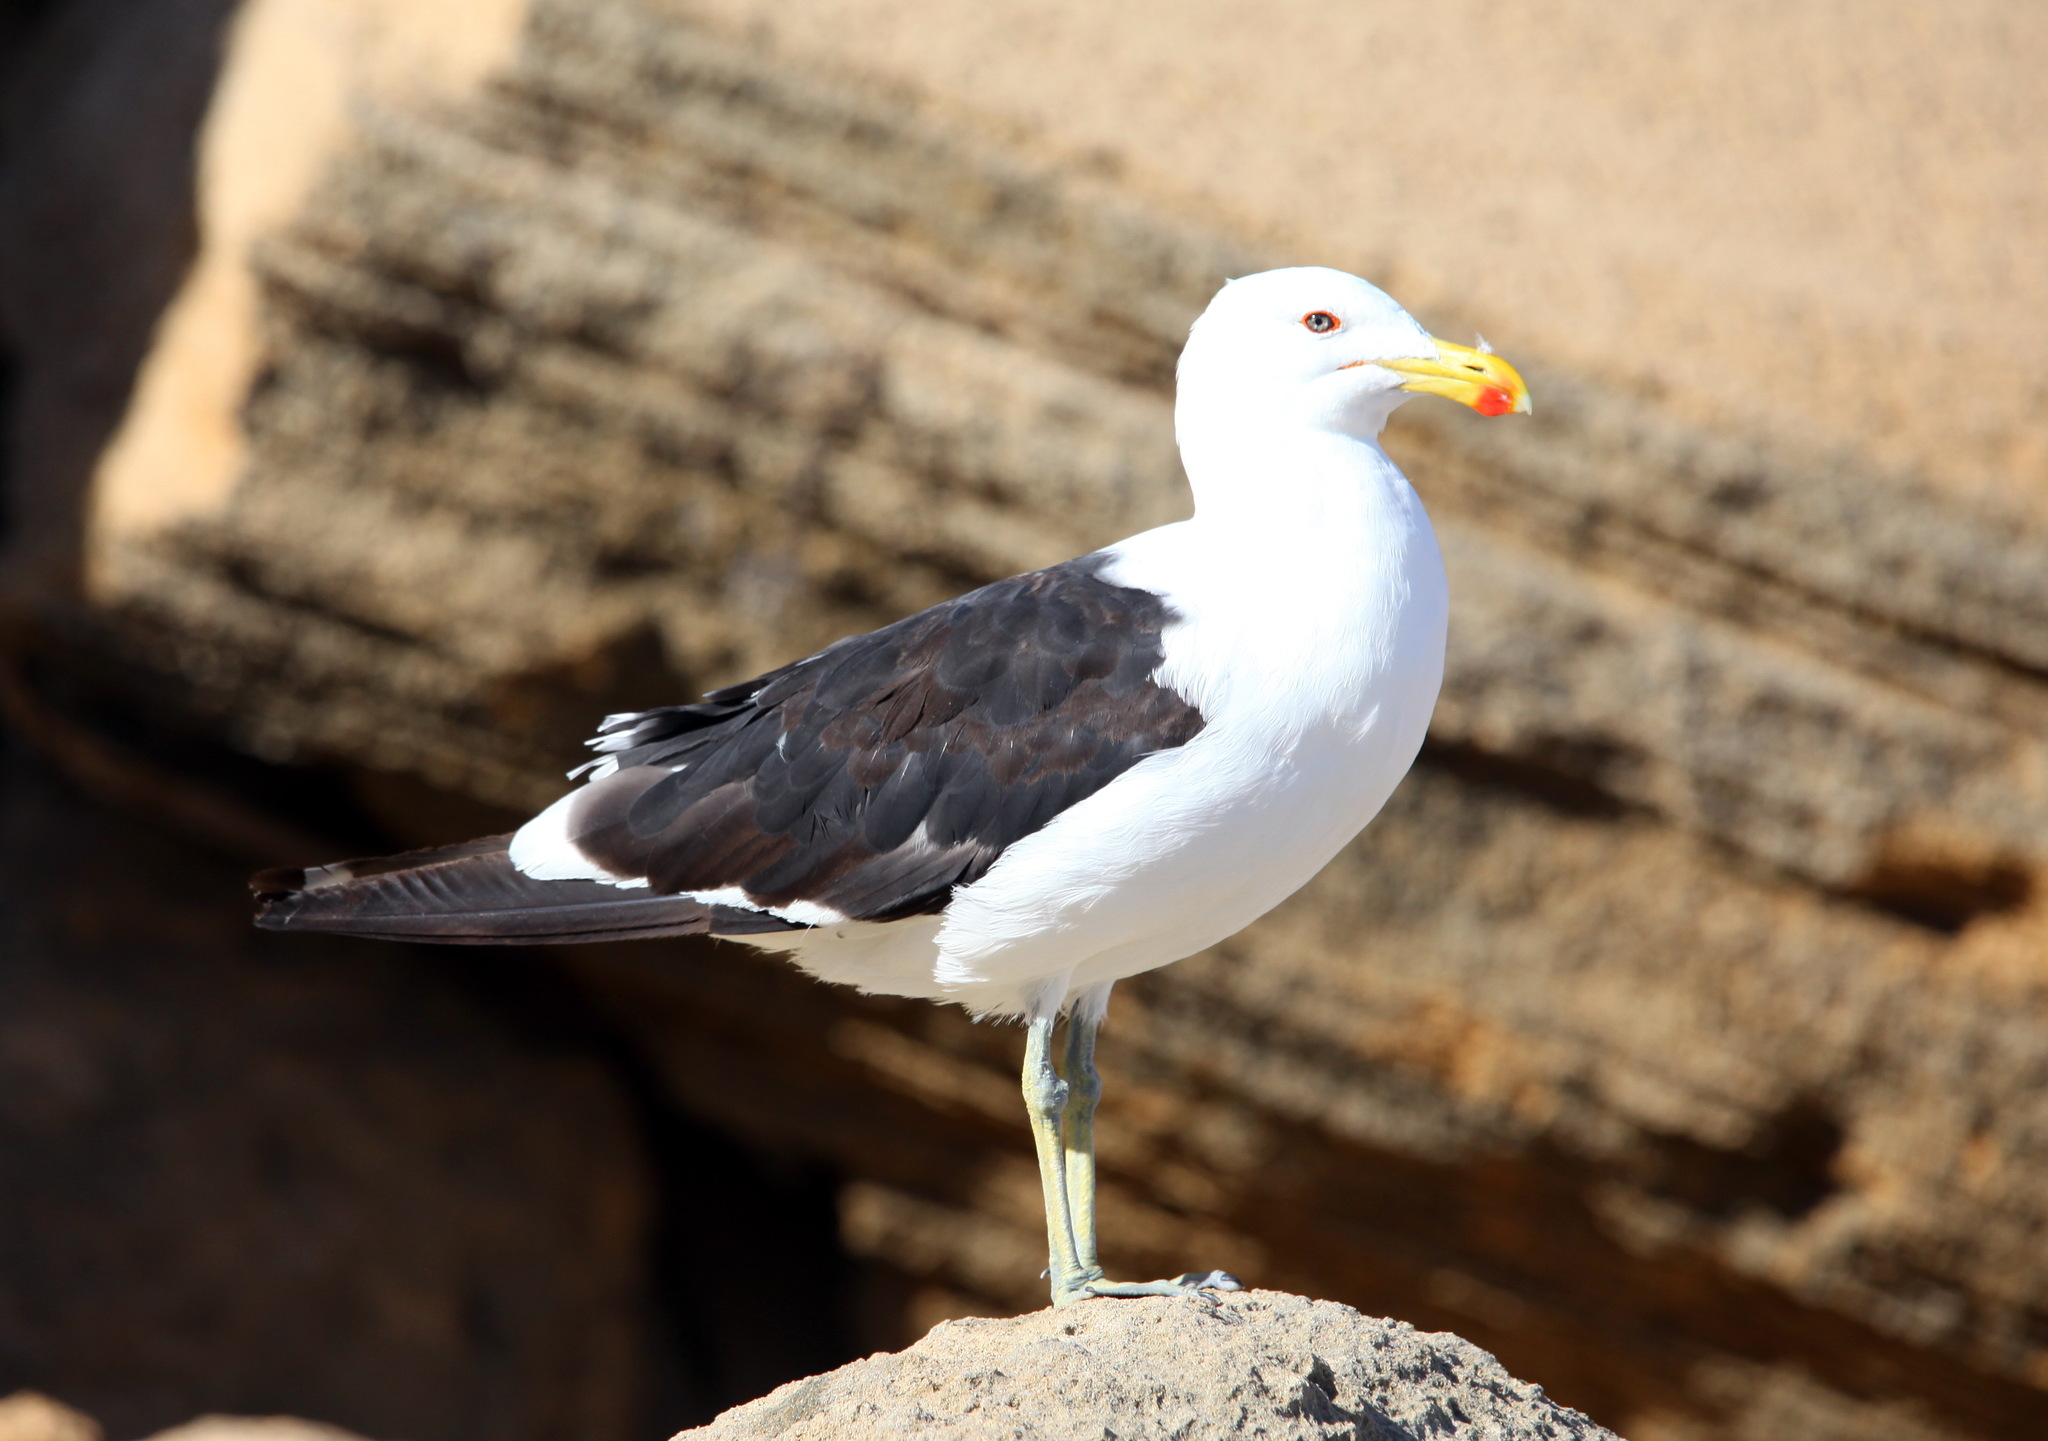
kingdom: Animalia
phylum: Chordata
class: Aves
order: Charadriiformes
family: Laridae
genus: Larus
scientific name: Larus dominicanus
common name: Kelp gull
